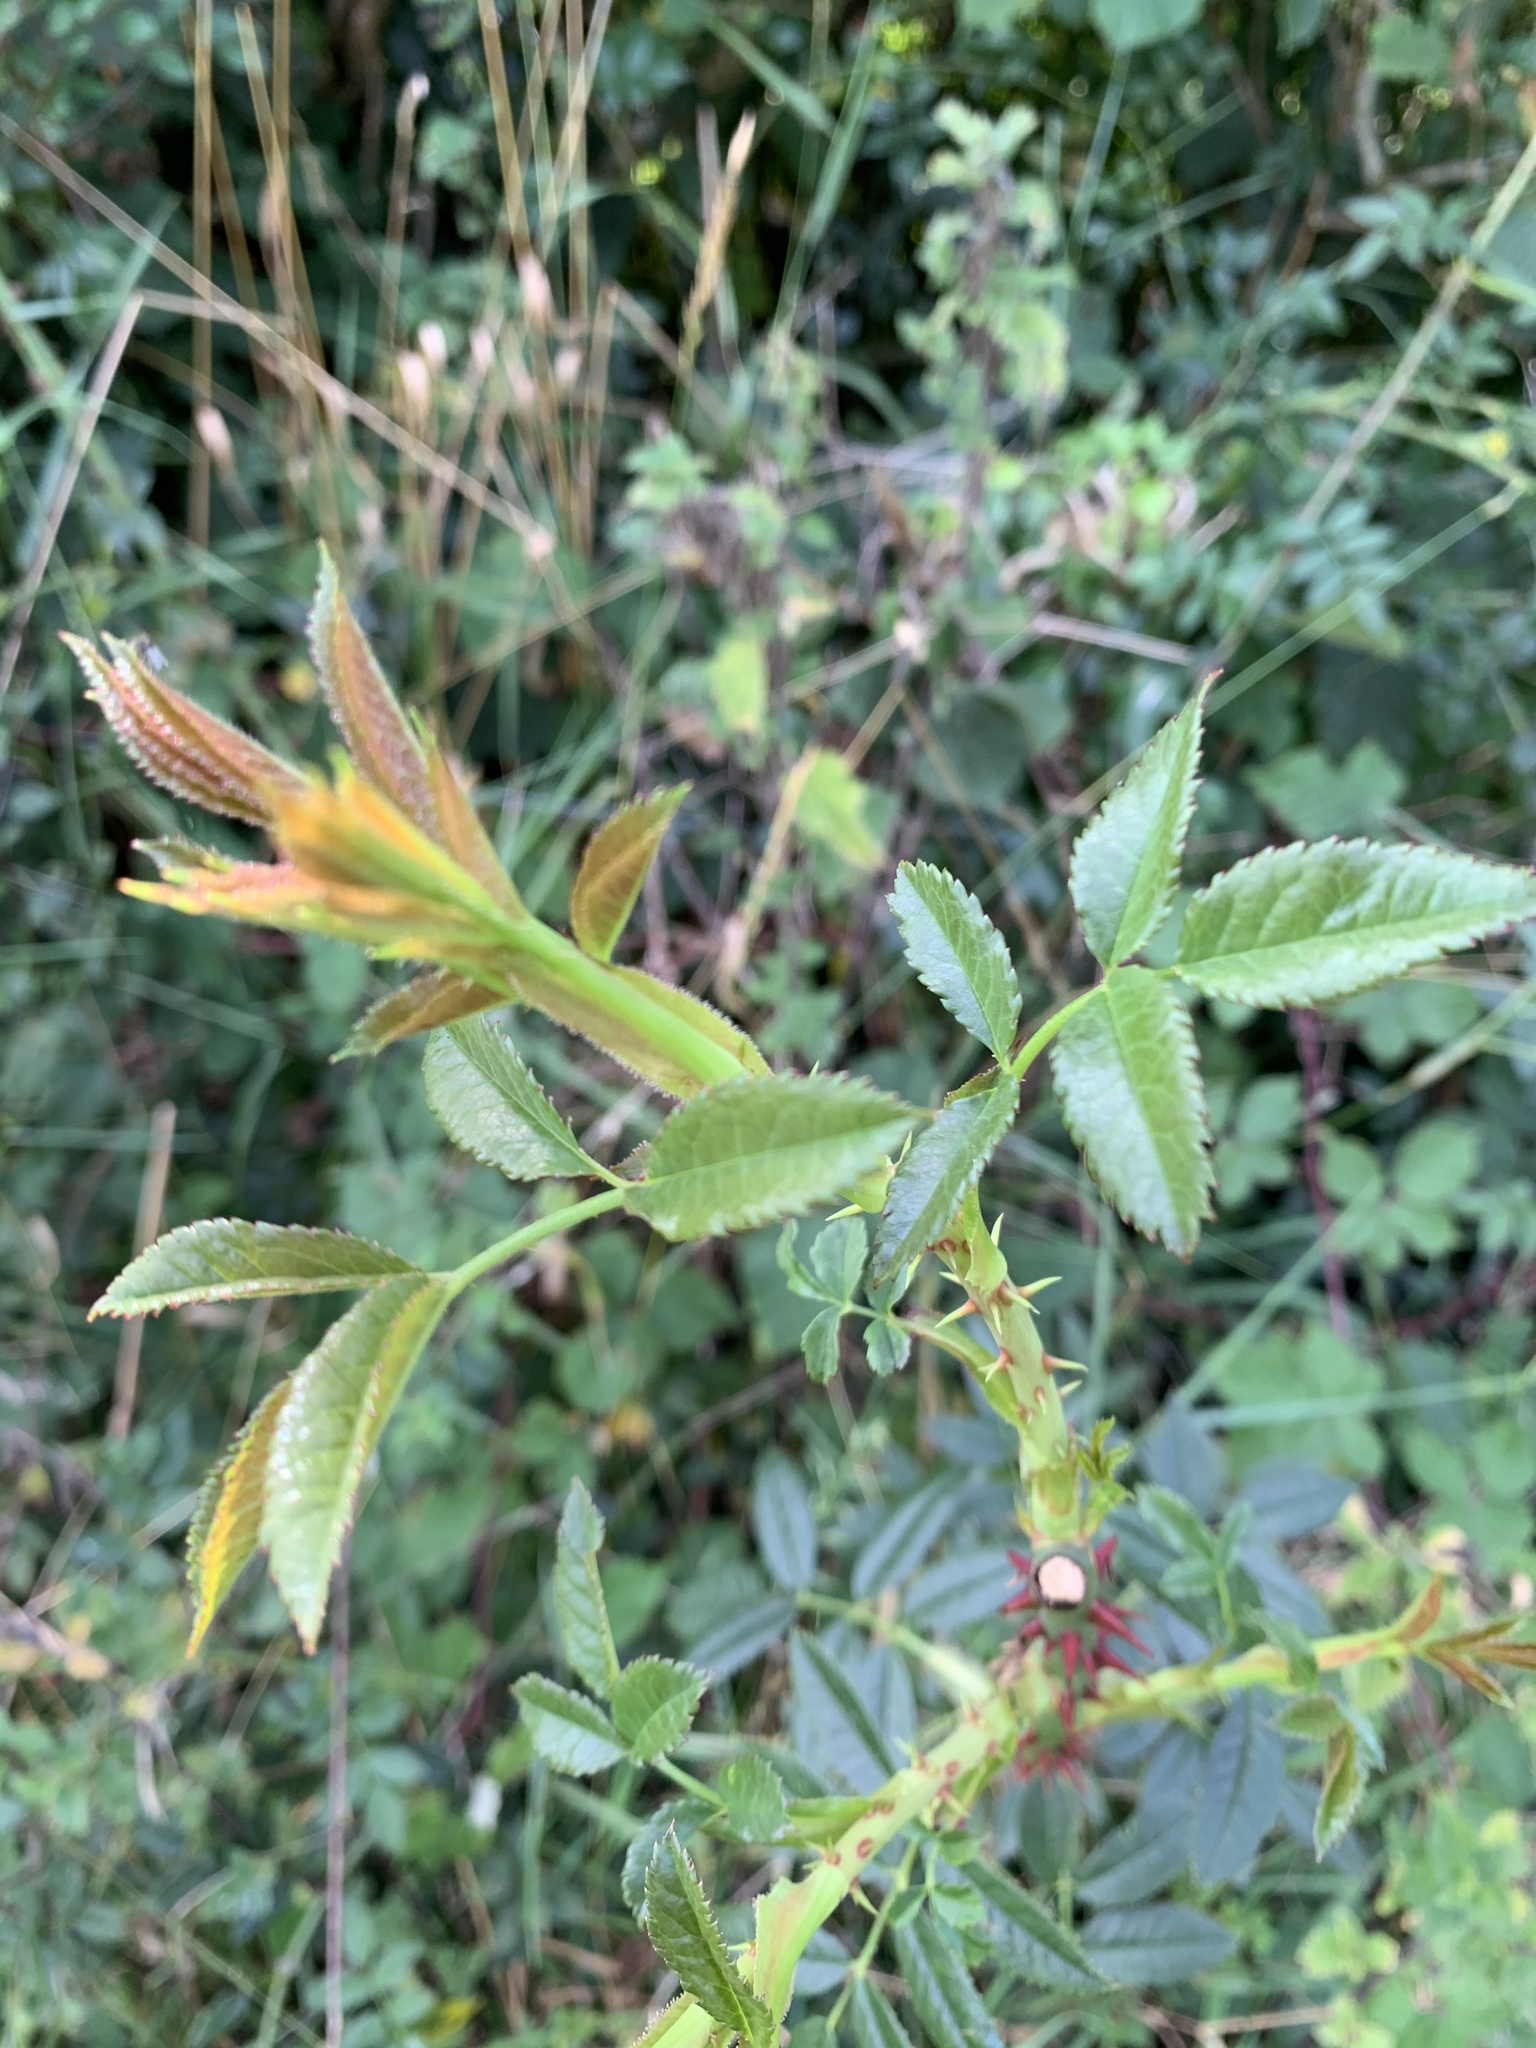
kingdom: Plantae
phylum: Tracheophyta
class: Magnoliopsida
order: Rosales
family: Rosaceae
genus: Rosa
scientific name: Rosa canina
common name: Dog rose
